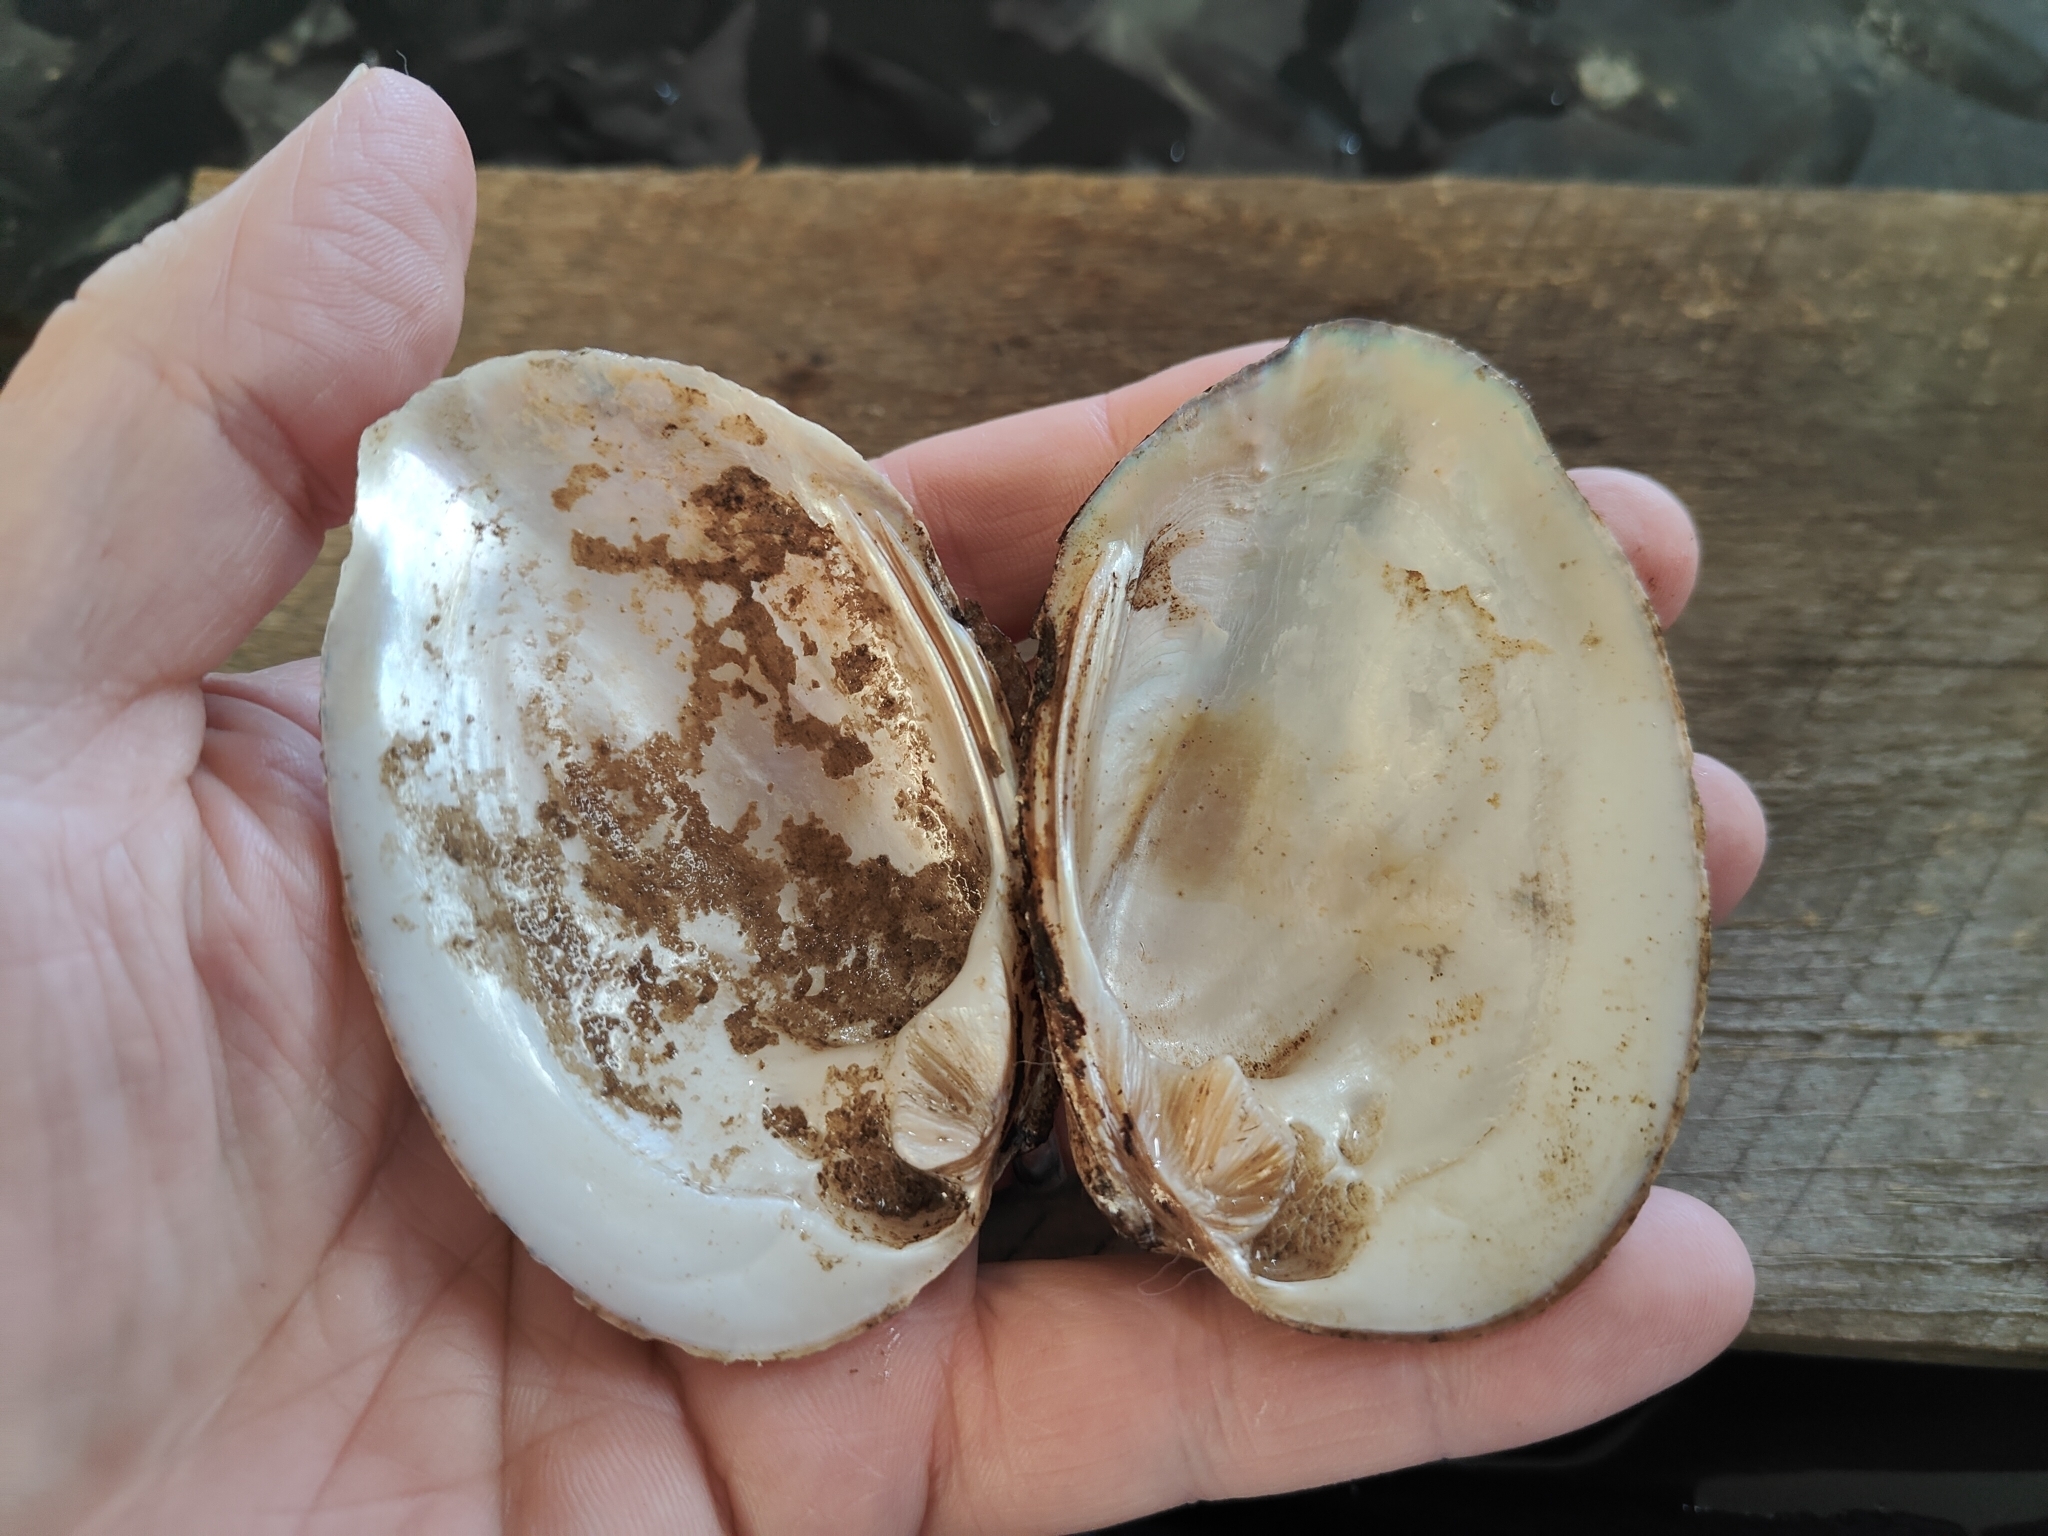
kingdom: Animalia
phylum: Mollusca
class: Bivalvia
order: Unionida
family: Unionidae
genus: Amblema
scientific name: Amblema plicata
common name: Threeridge
